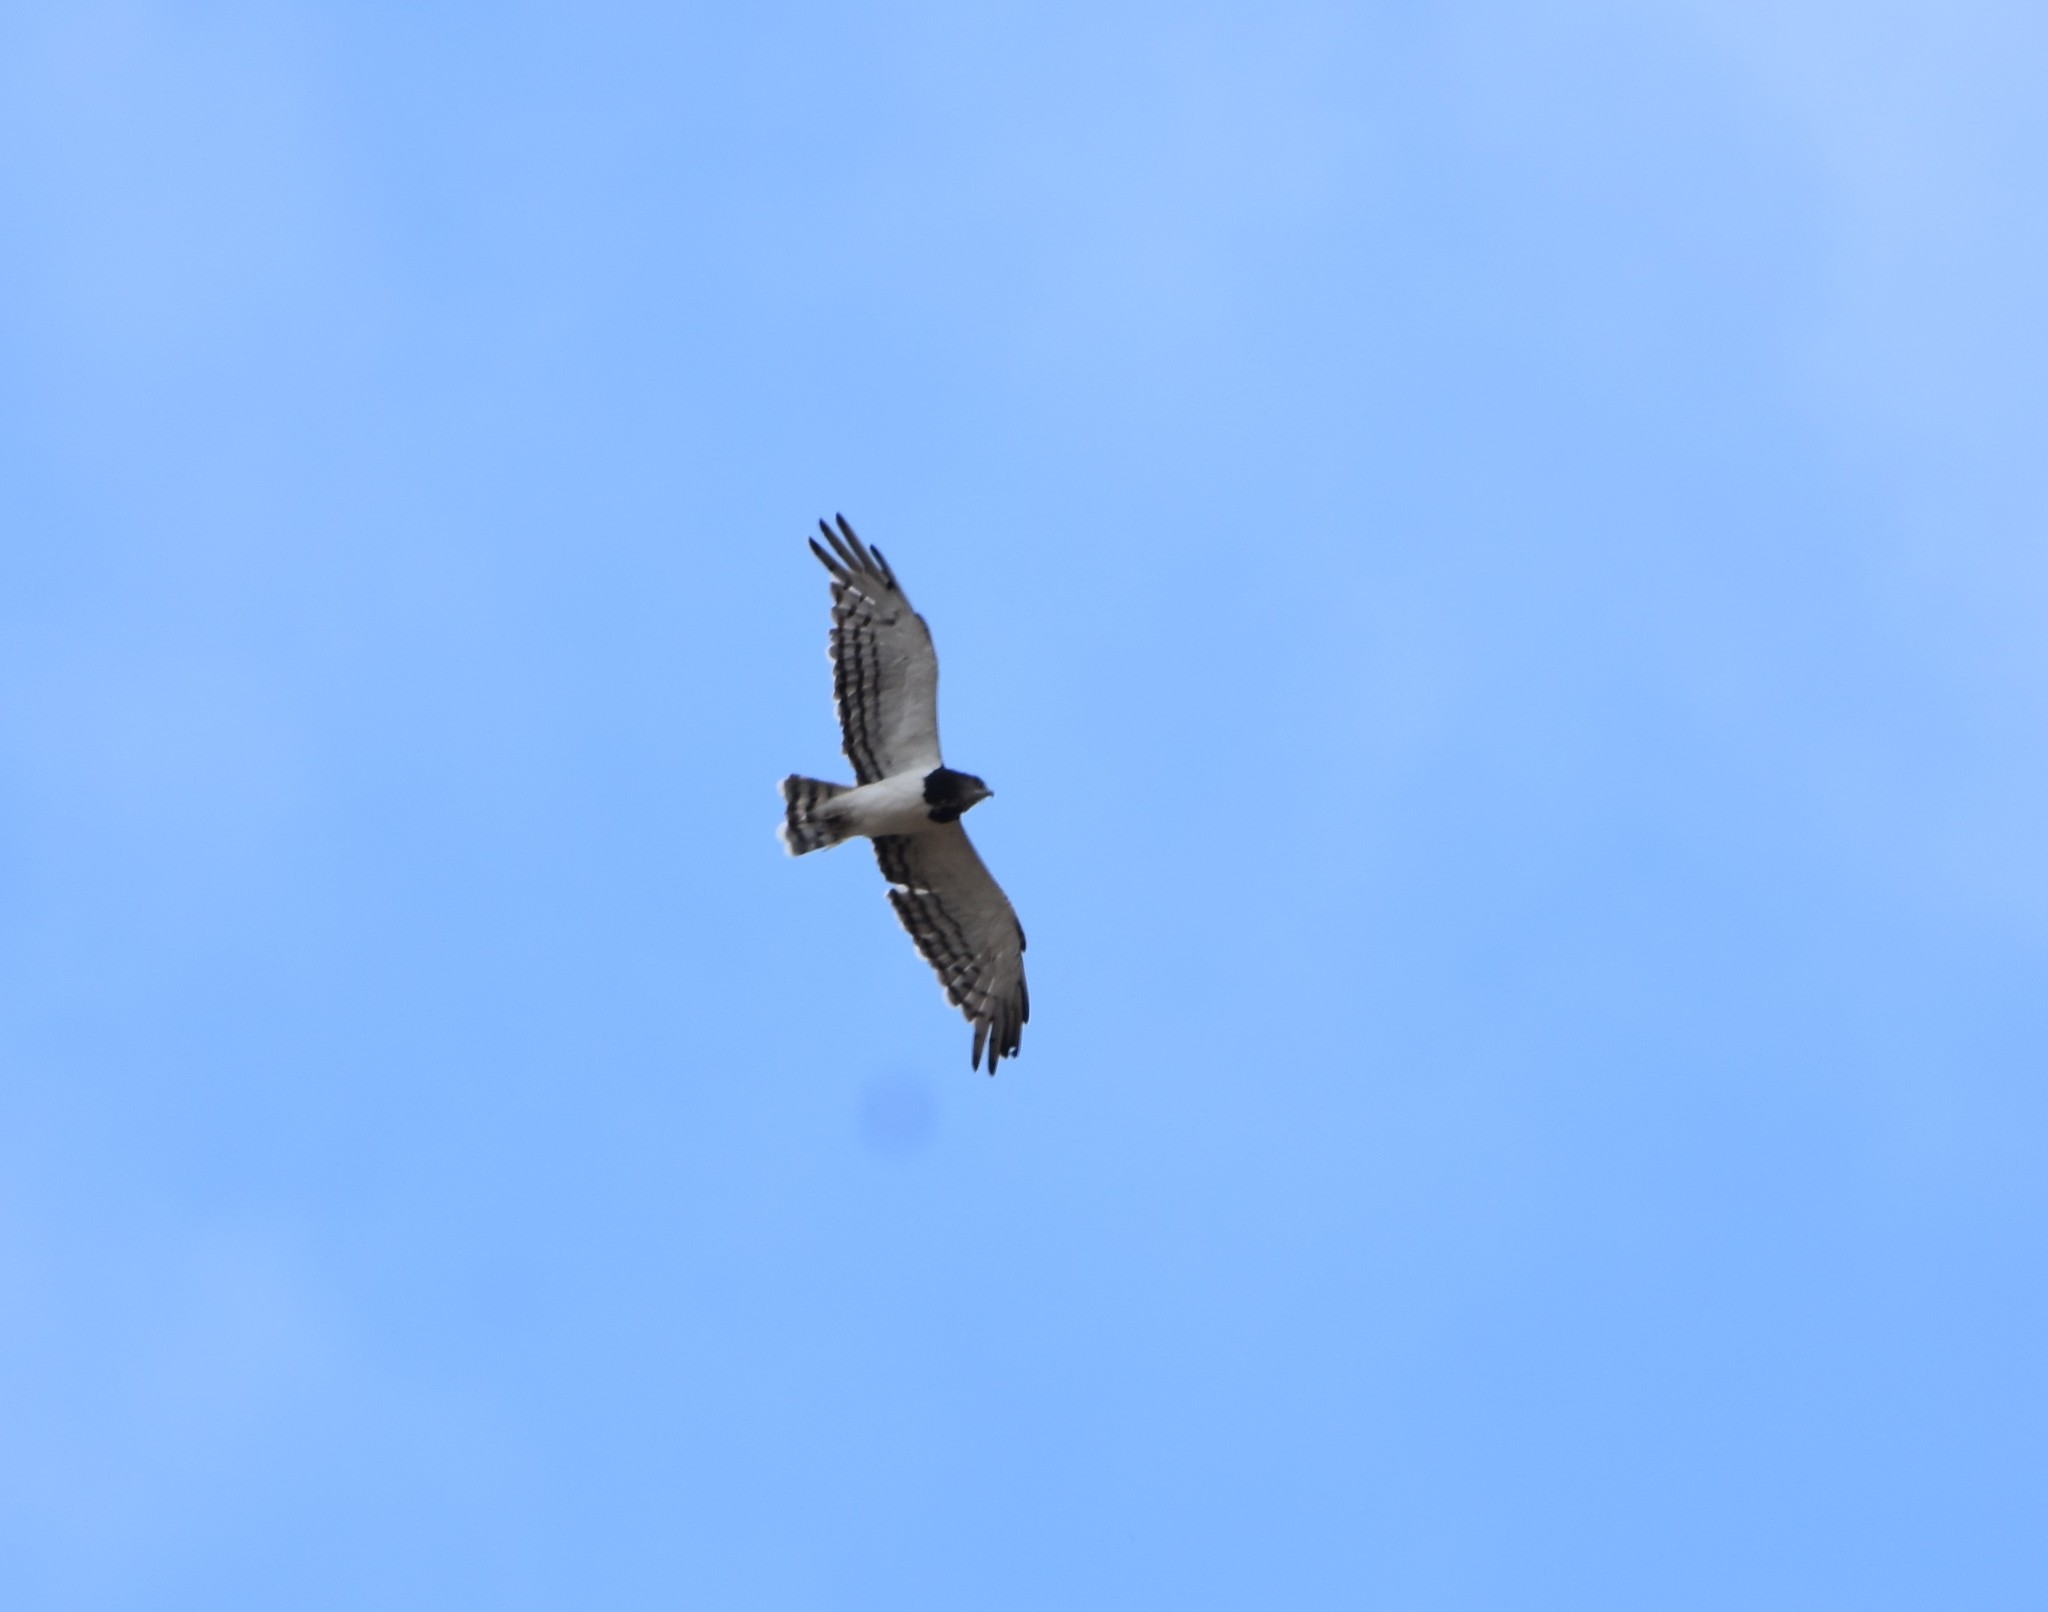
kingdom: Animalia
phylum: Chordata
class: Aves
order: Accipitriformes
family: Accipitridae
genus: Circaetus
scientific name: Circaetus pectoralis
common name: Black-chested snake eagle
